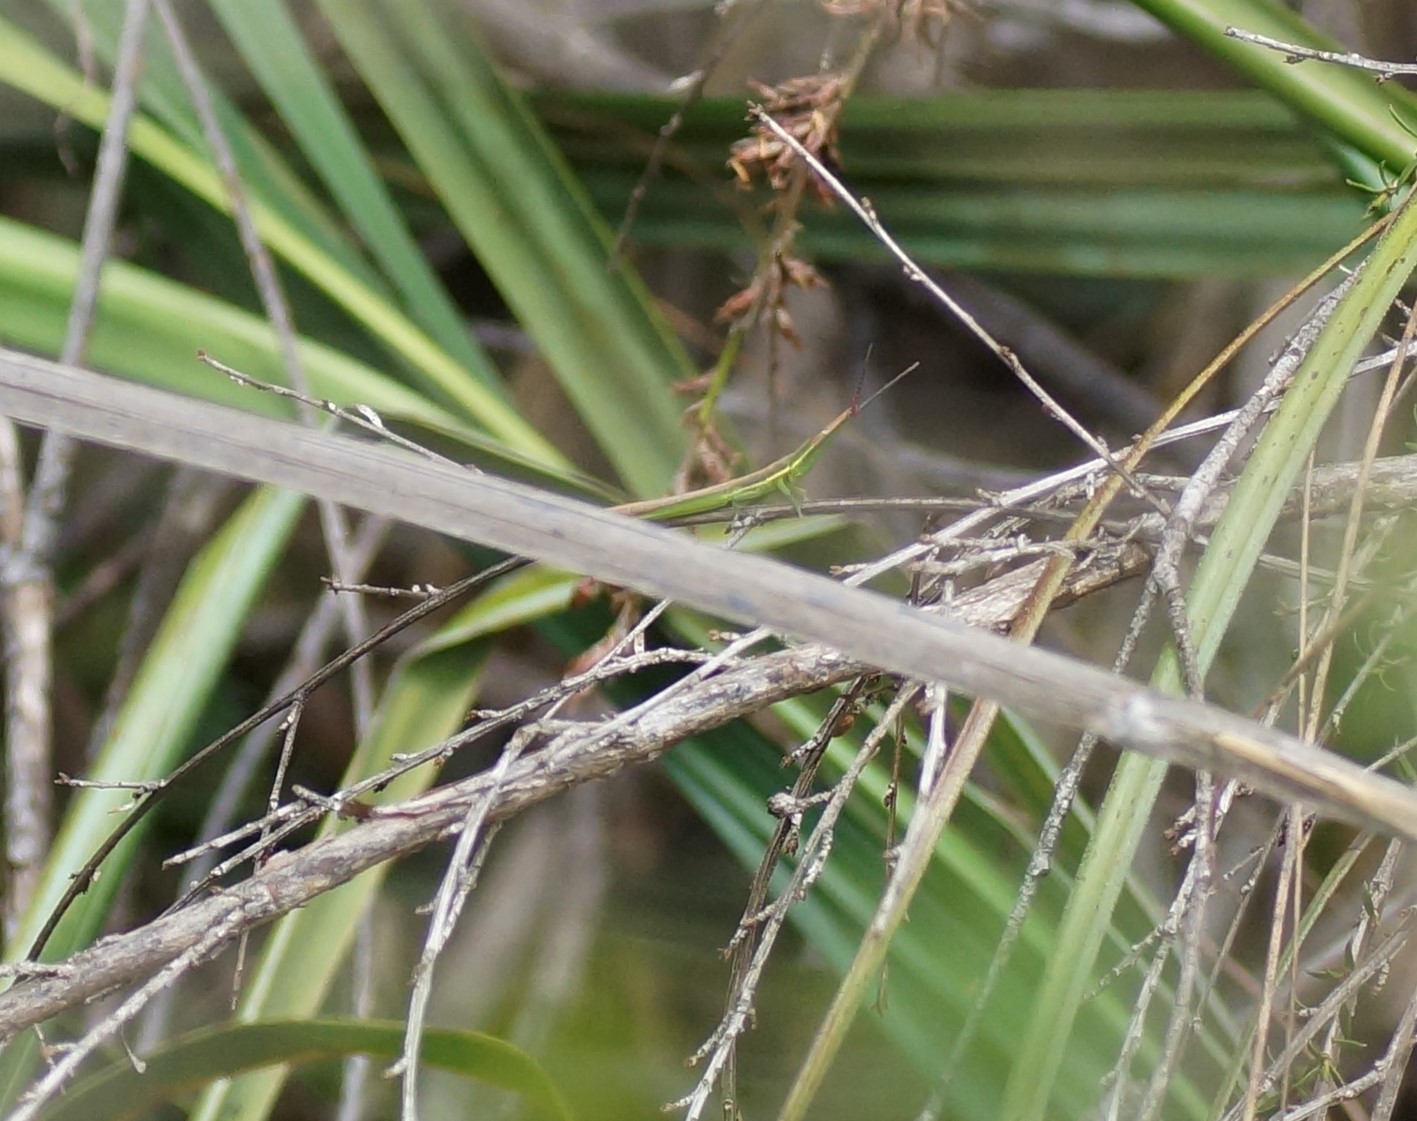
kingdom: Animalia
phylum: Arthropoda
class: Insecta
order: Orthoptera
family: Acrididae
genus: Acrida
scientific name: Acrida conica
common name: Giant green slantface
